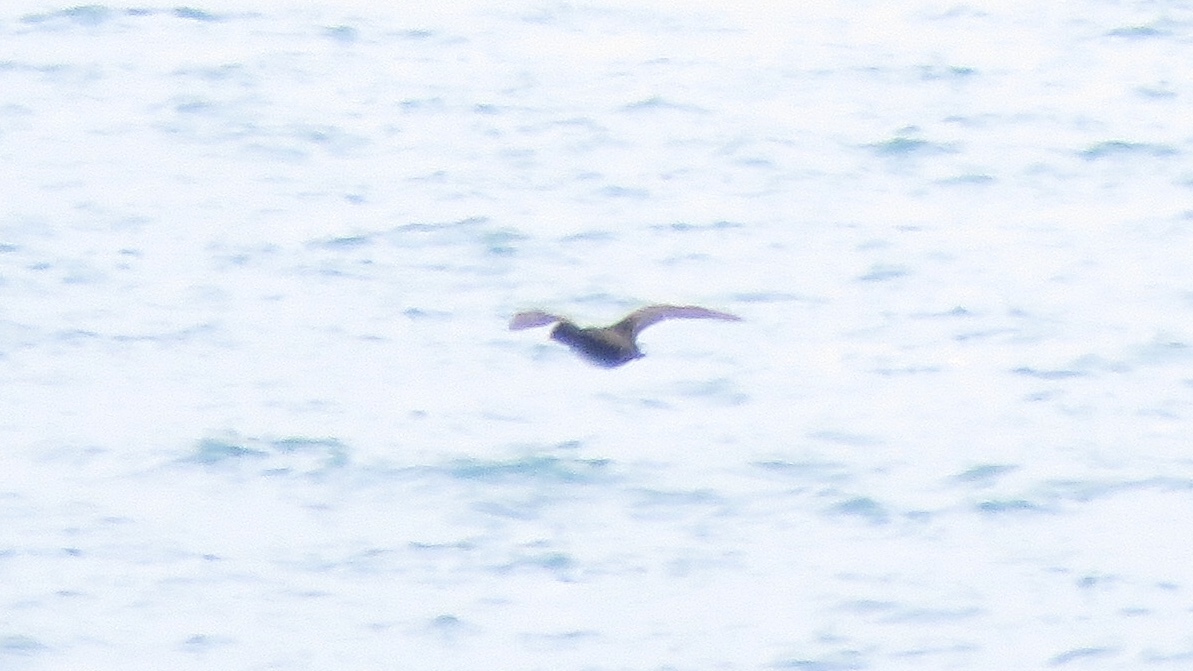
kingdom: Animalia
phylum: Chordata
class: Aves
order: Anseriformes
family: Anatidae
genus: Melanitta
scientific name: Melanitta americana
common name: Black scoter
